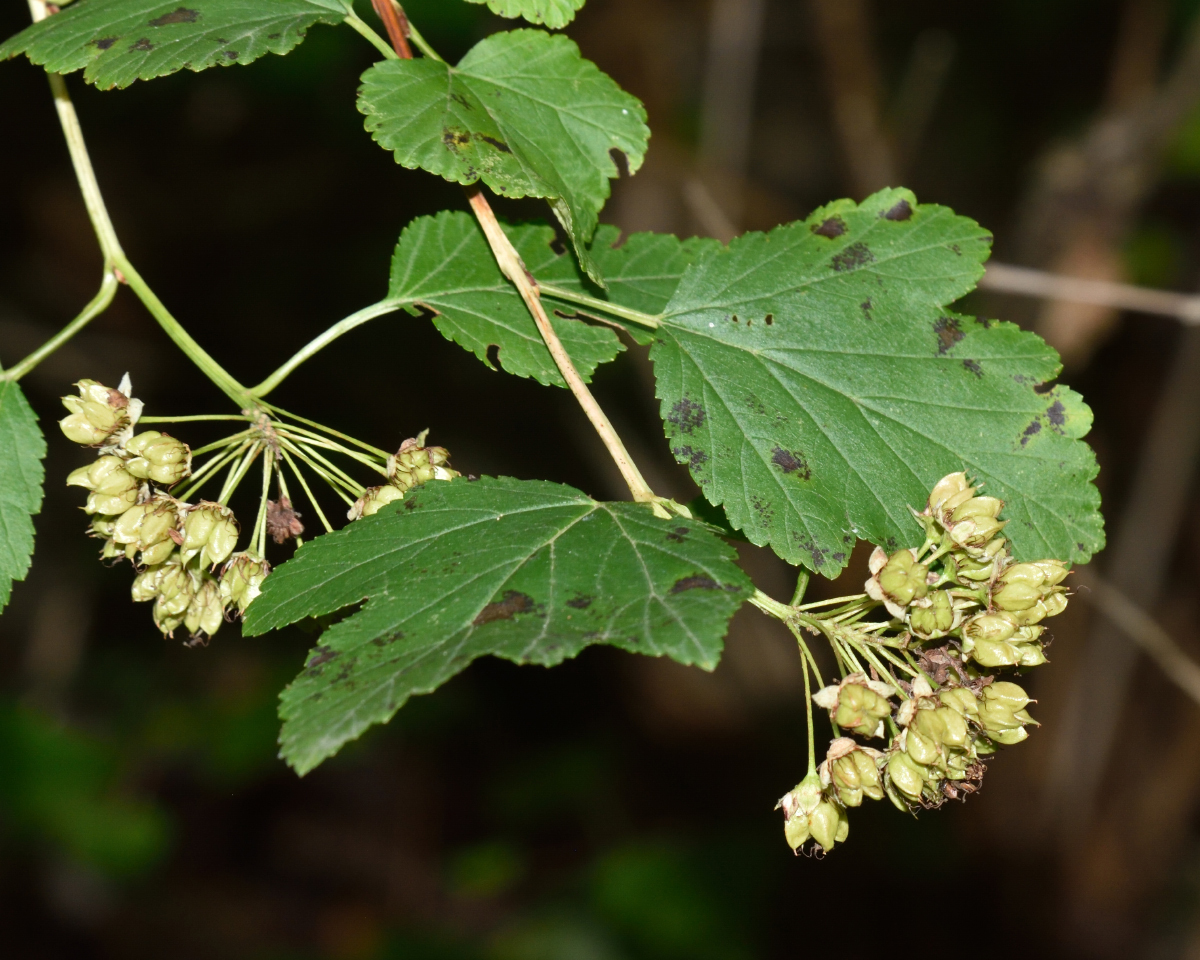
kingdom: Plantae
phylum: Tracheophyta
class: Magnoliopsida
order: Rosales
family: Rosaceae
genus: Physocarpus
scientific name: Physocarpus opulifolius
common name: Ninebark
